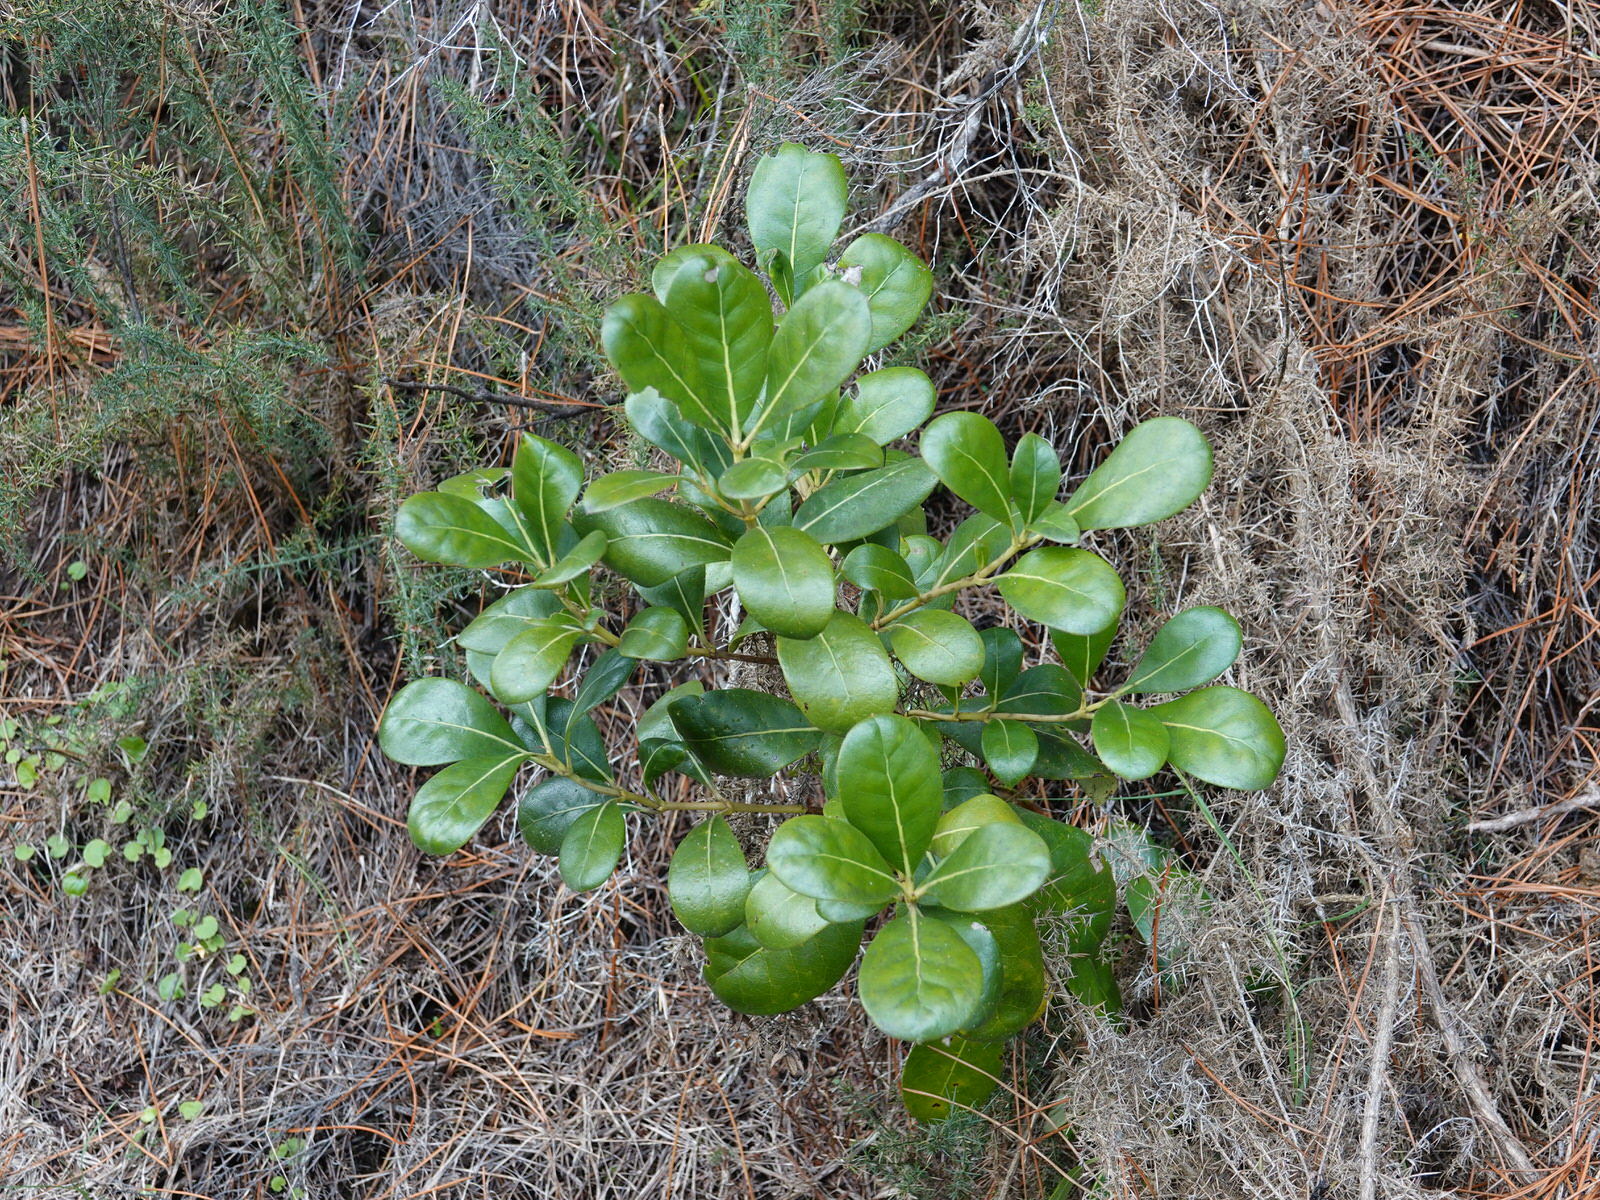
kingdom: Plantae
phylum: Tracheophyta
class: Magnoliopsida
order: Gentianales
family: Rubiaceae
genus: Coprosma
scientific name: Coprosma lucida
